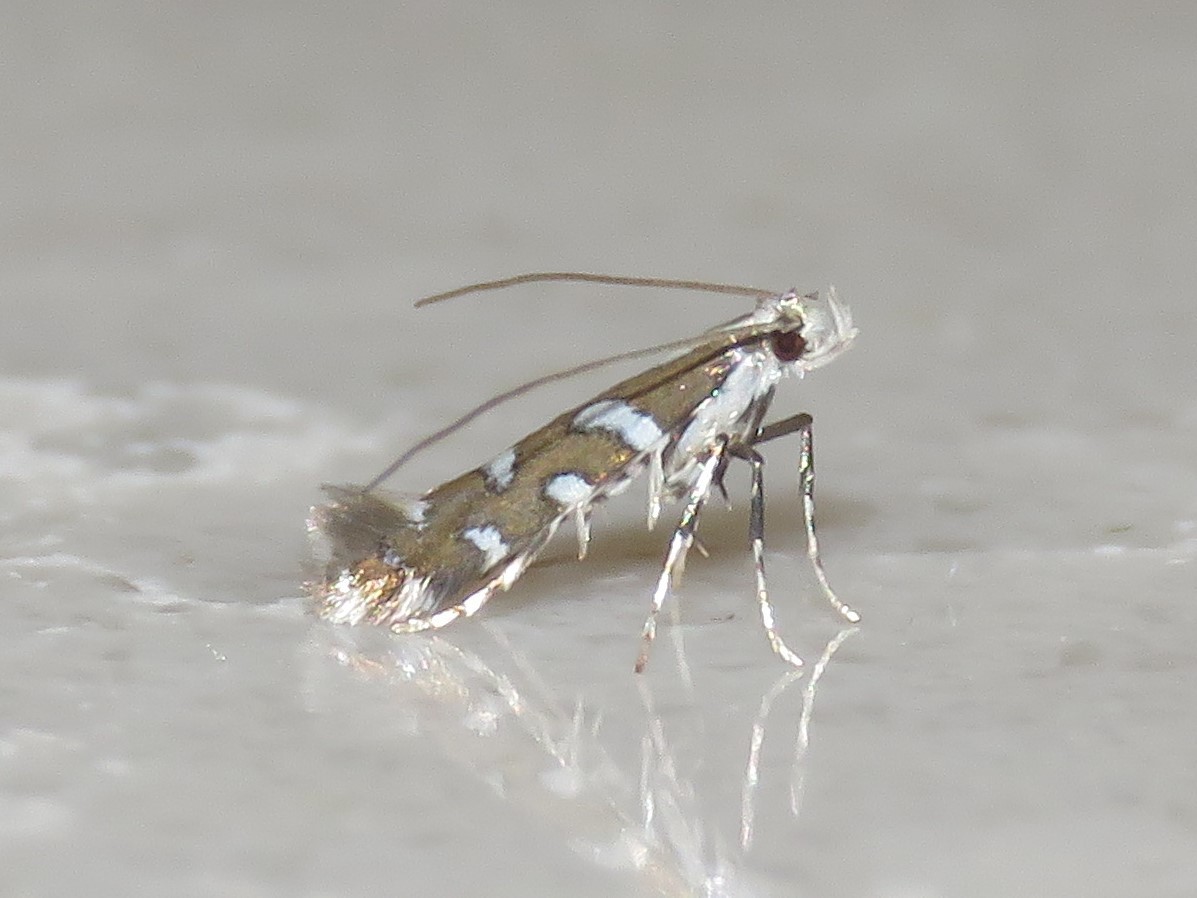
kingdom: Animalia
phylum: Arthropoda
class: Insecta
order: Lepidoptera
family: Gracillariidae
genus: Acrocercops
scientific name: Acrocercops pnosmodiella
